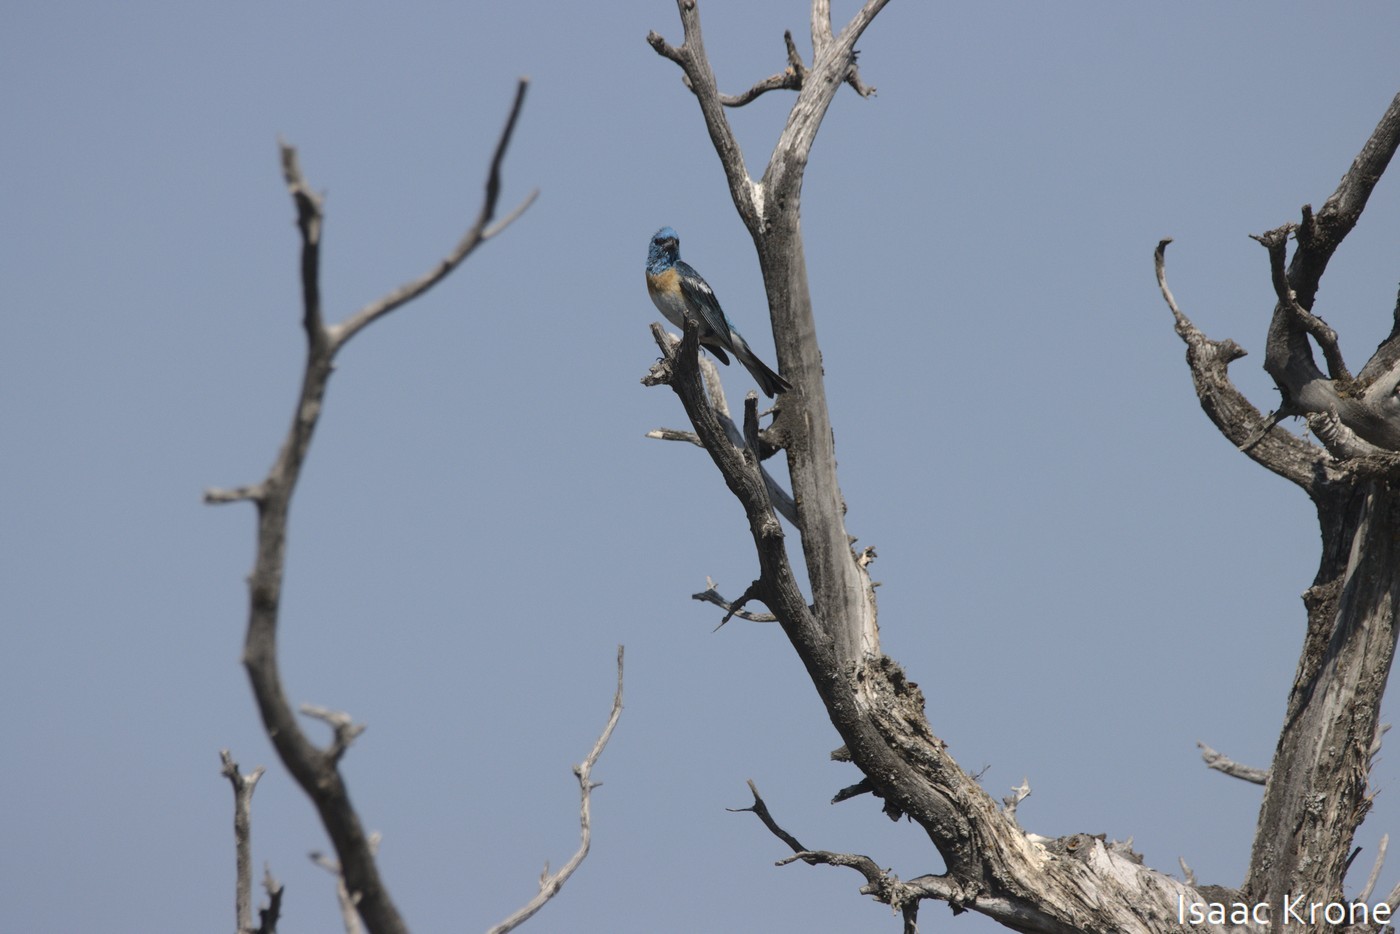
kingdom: Animalia
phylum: Chordata
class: Aves
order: Passeriformes
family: Cardinalidae
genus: Passerina
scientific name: Passerina amoena
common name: Lazuli bunting
